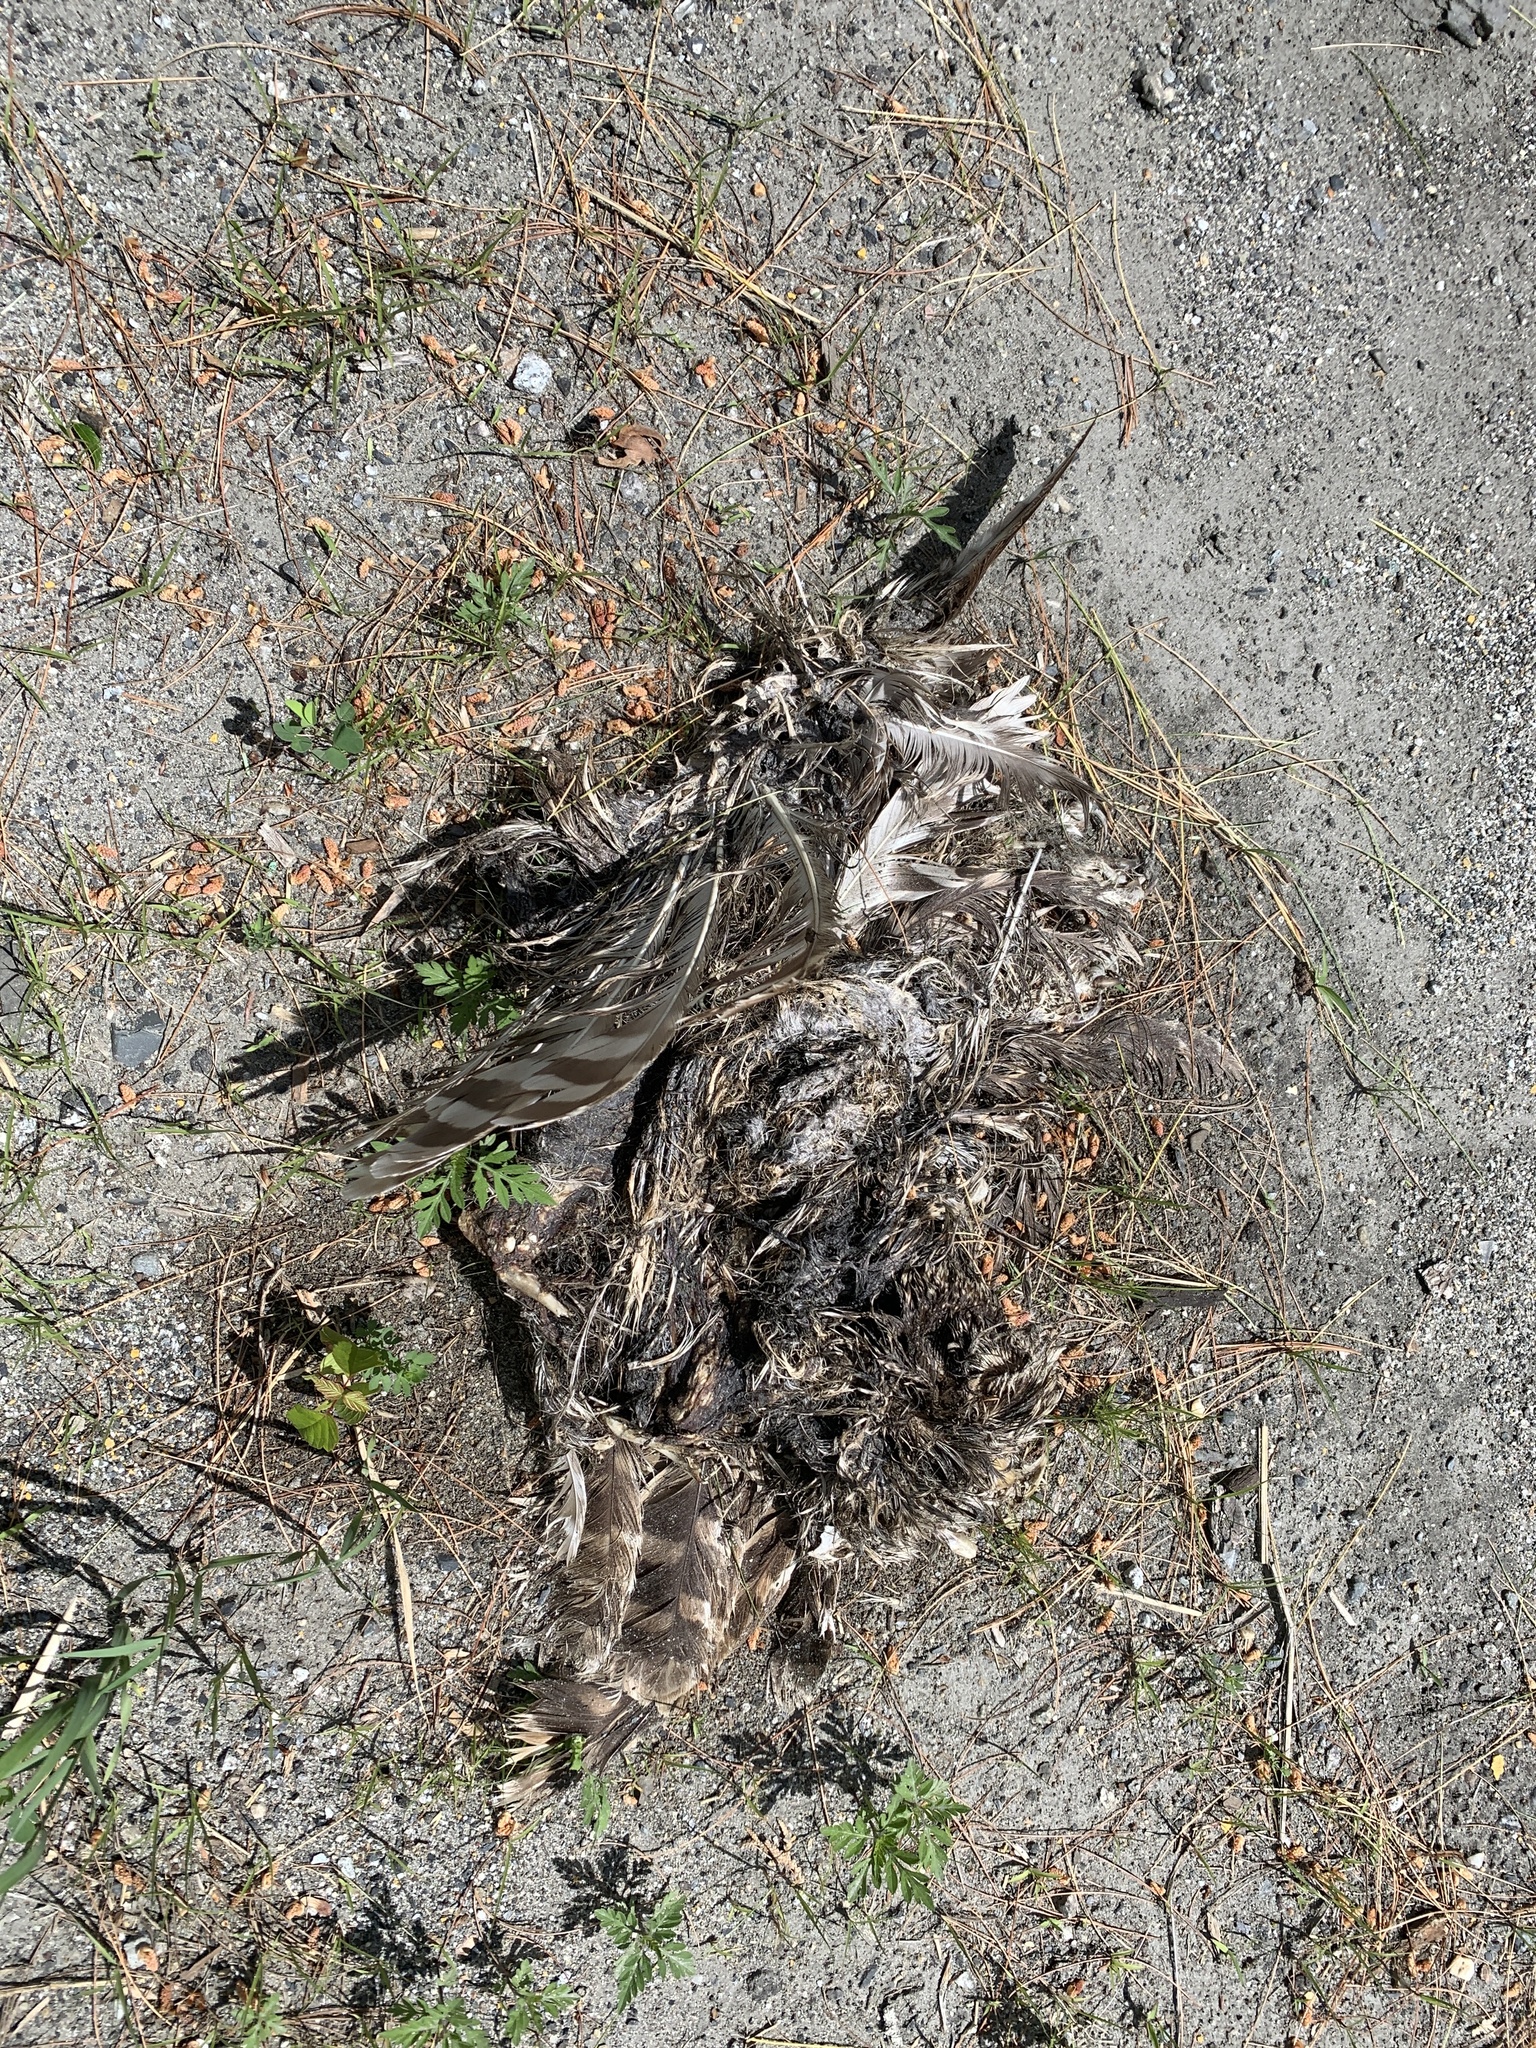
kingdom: Animalia
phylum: Chordata
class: Aves
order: Strigiformes
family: Strigidae
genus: Strix
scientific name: Strix varia
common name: Barred owl
